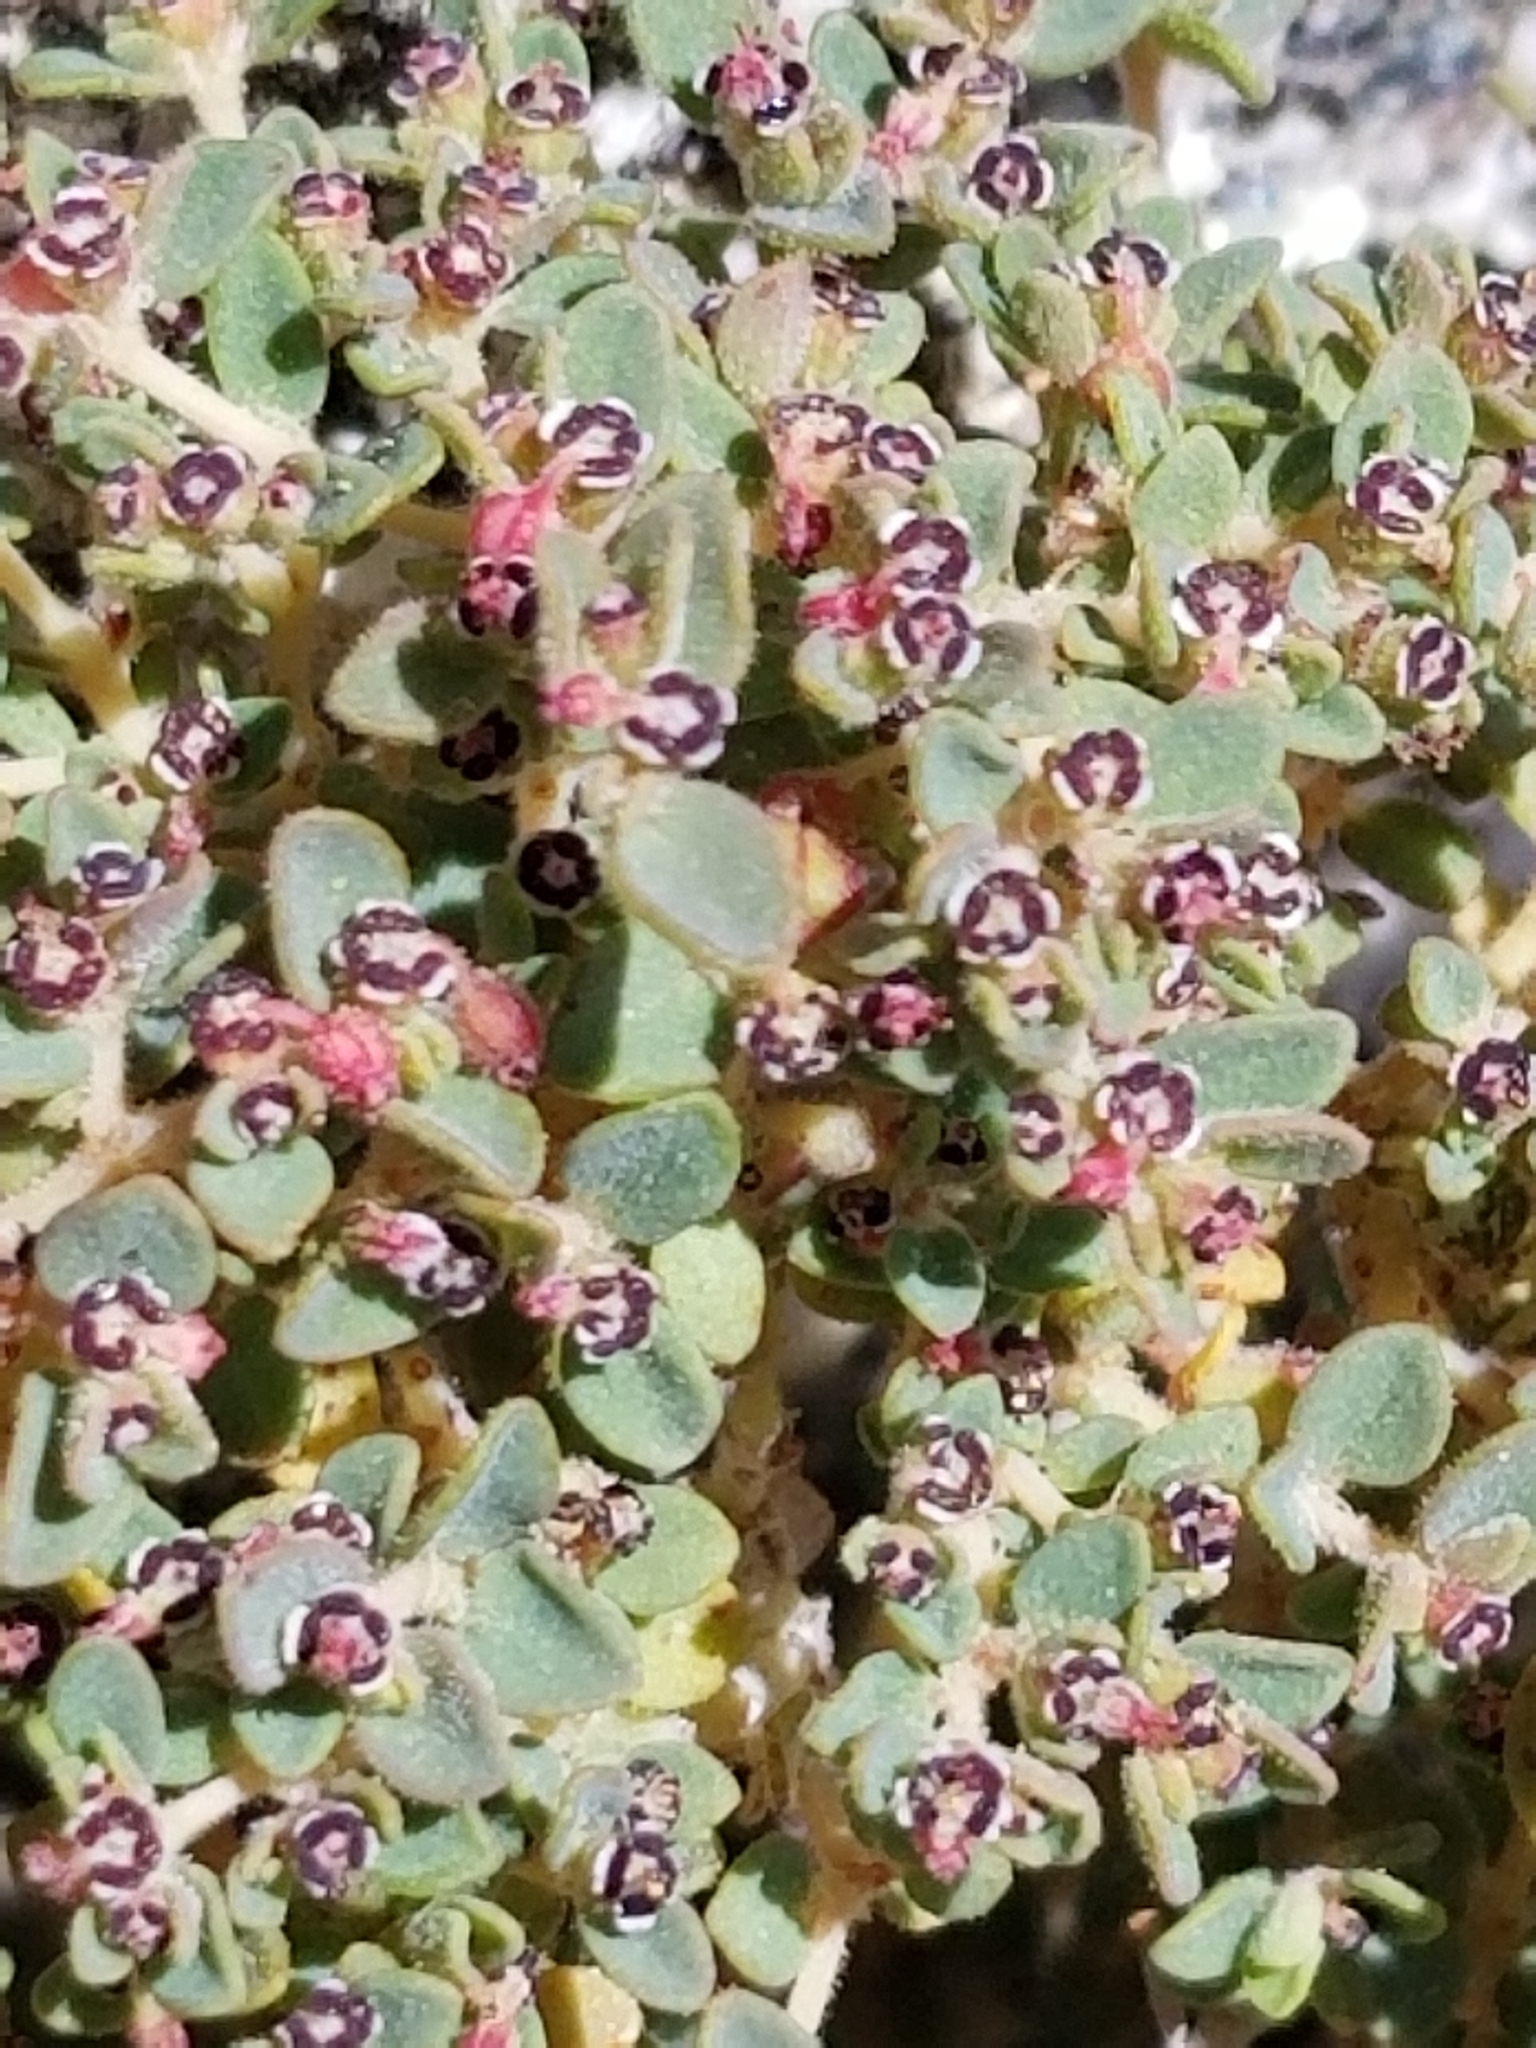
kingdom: Plantae
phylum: Tracheophyta
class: Magnoliopsida
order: Malpighiales
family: Euphorbiaceae
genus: Euphorbia
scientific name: Euphorbia polycarpa
